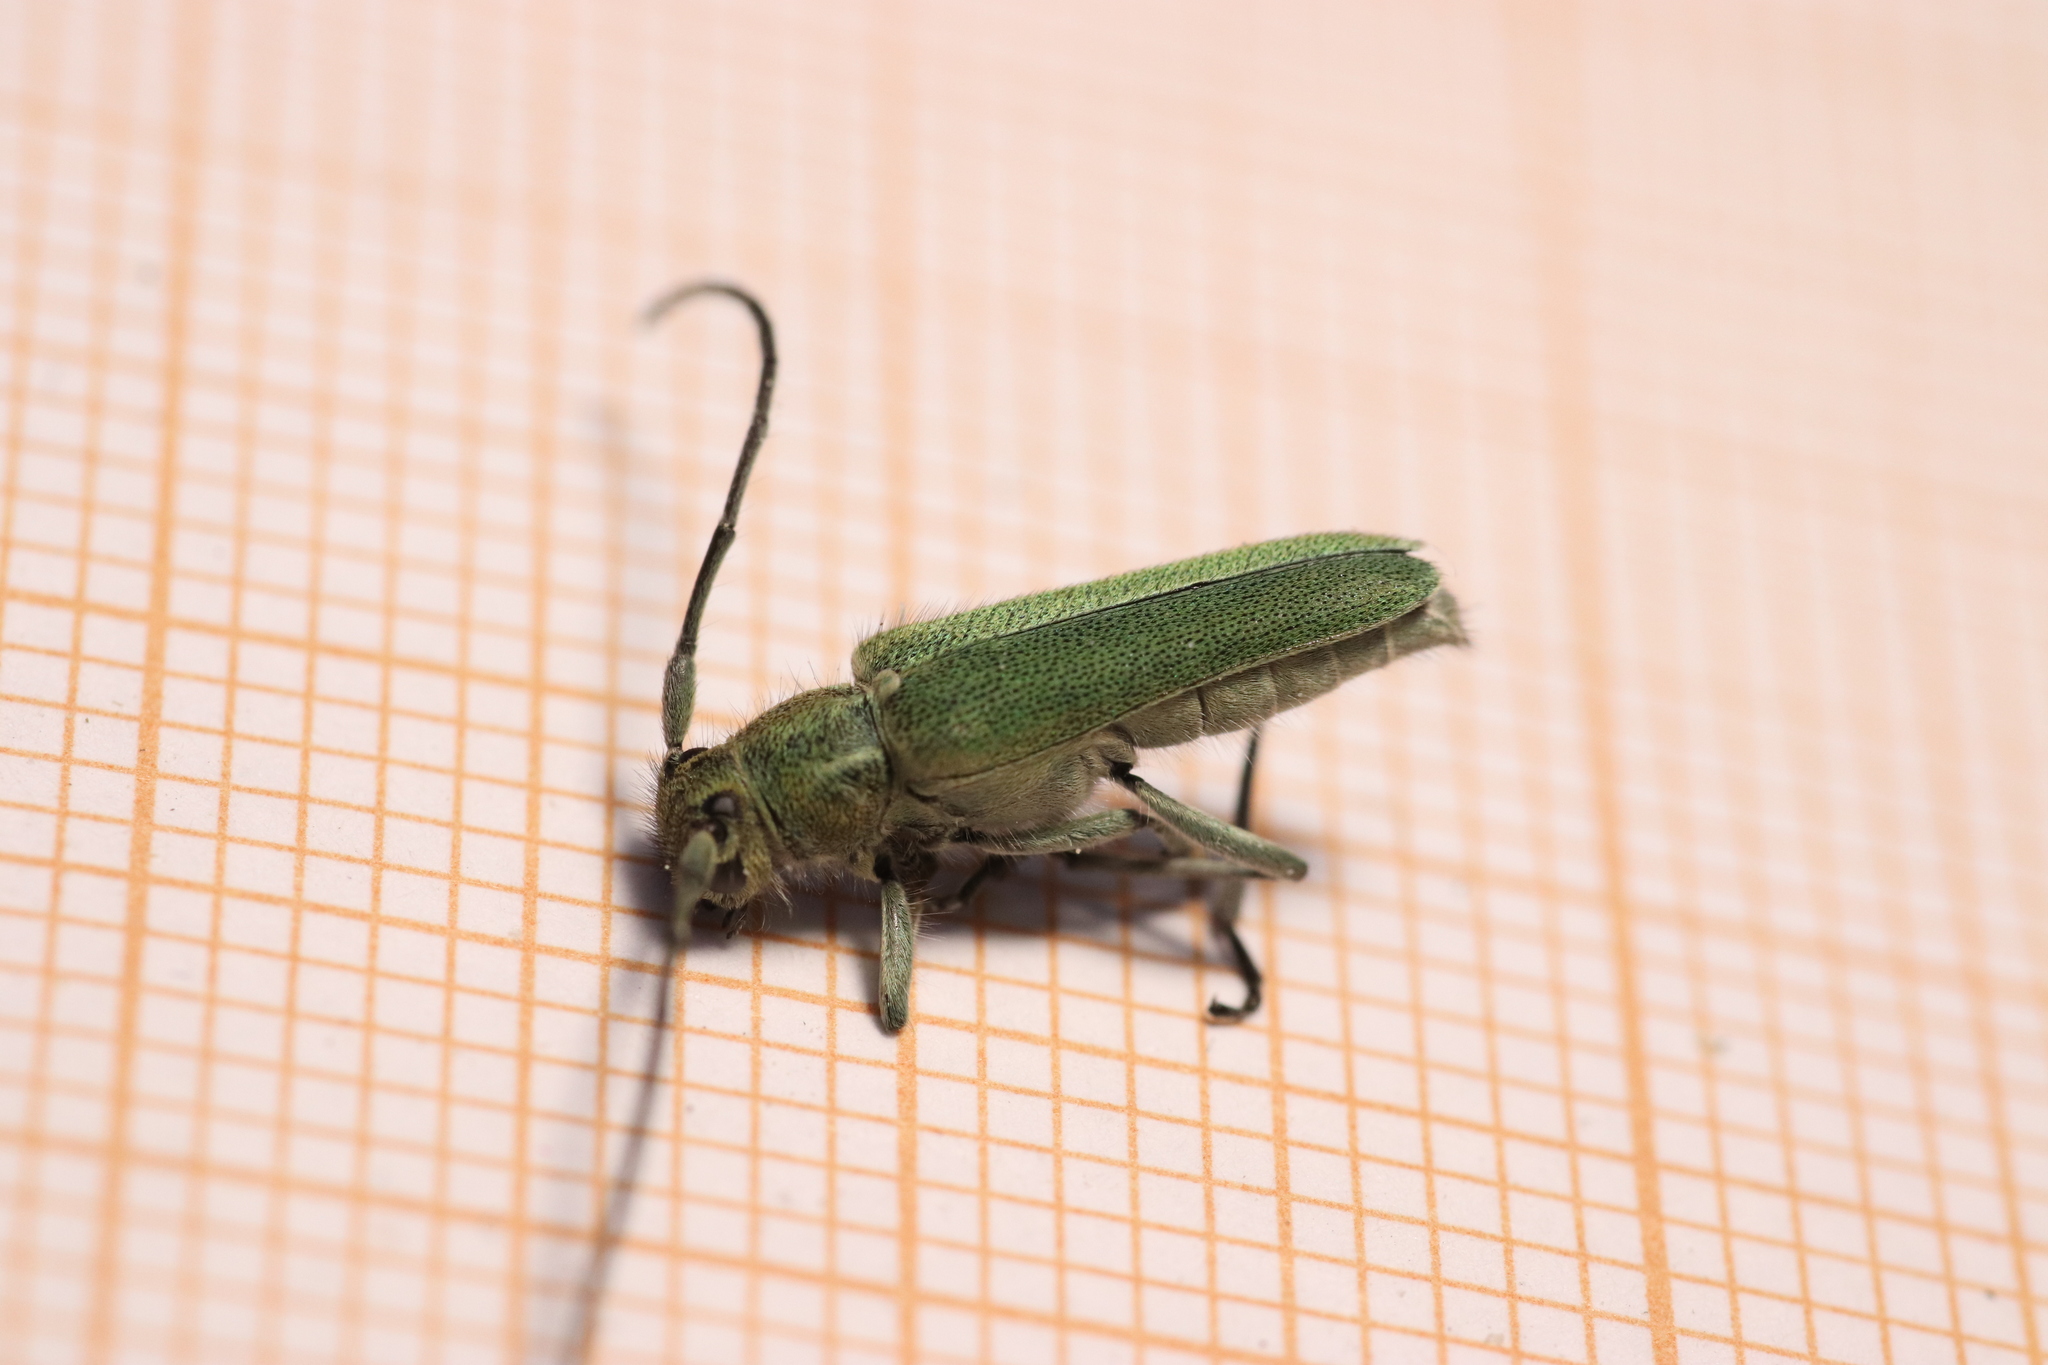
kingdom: Animalia
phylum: Arthropoda
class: Insecta
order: Coleoptera
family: Cerambycidae
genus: Phytoecia
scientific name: Phytoecia coerulescens
